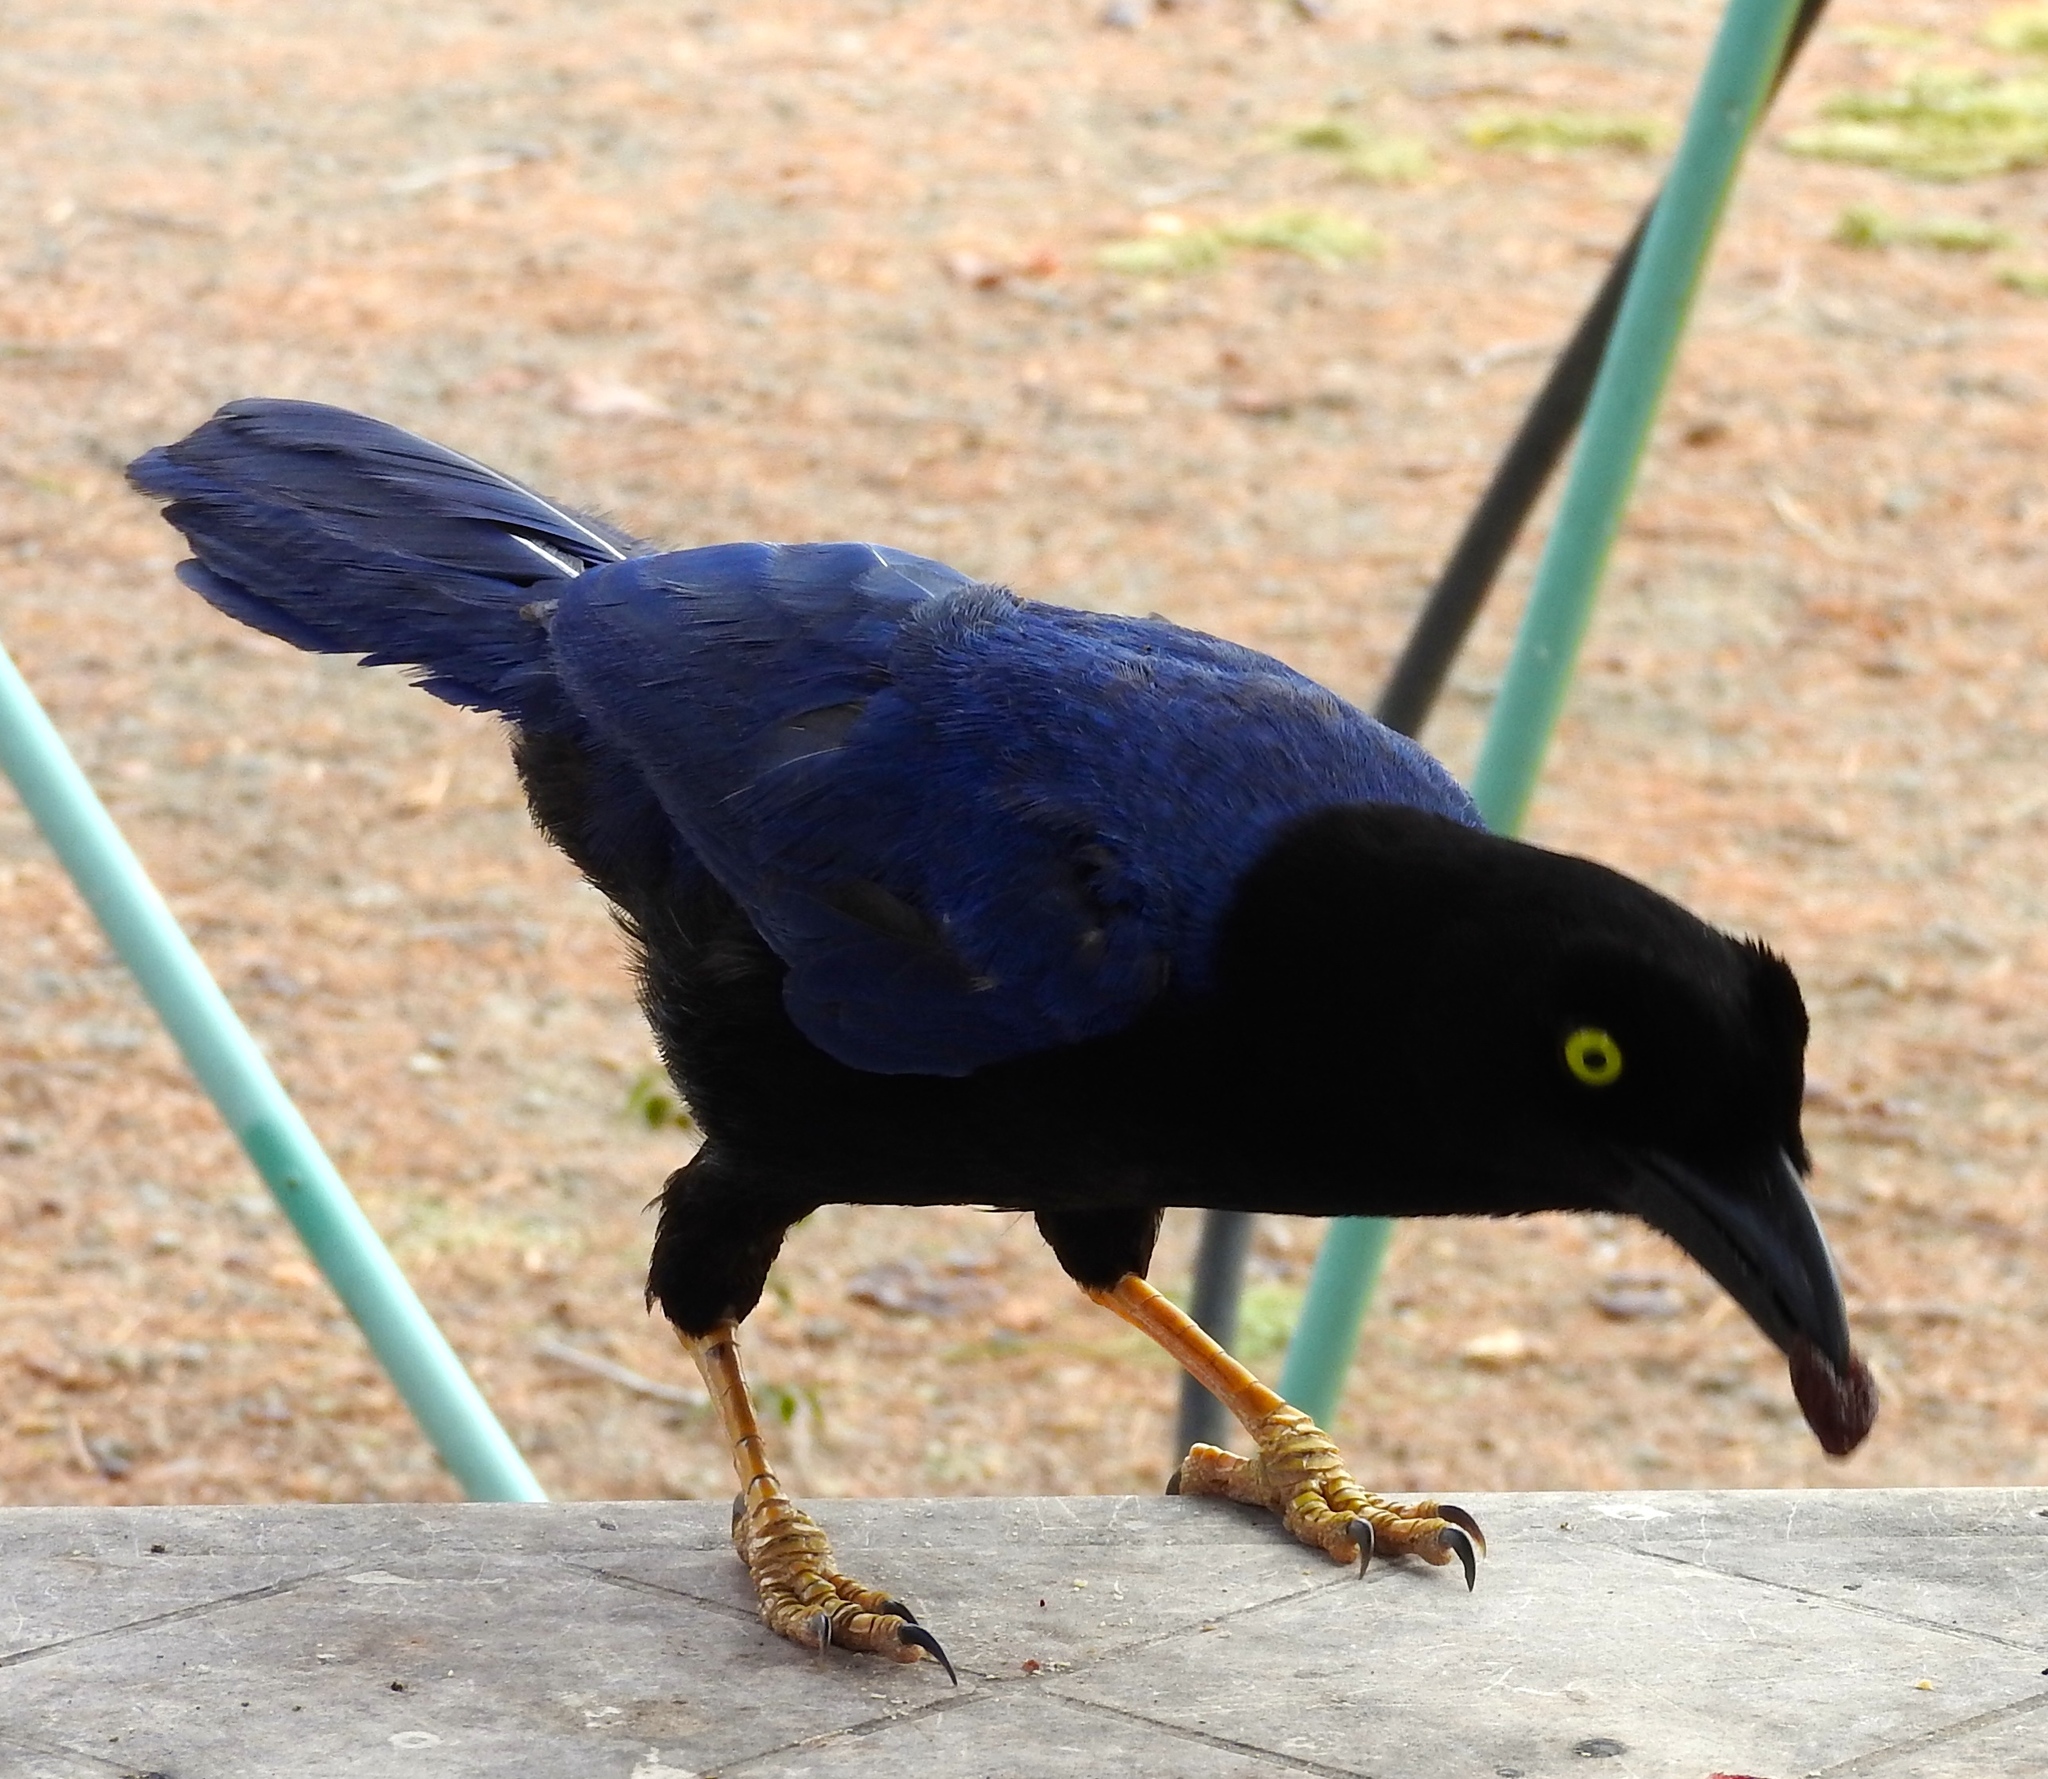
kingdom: Animalia
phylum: Chordata
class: Aves
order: Passeriformes
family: Corvidae
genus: Cyanocorax
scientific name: Cyanocorax beecheii
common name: Purplish-backed jay
